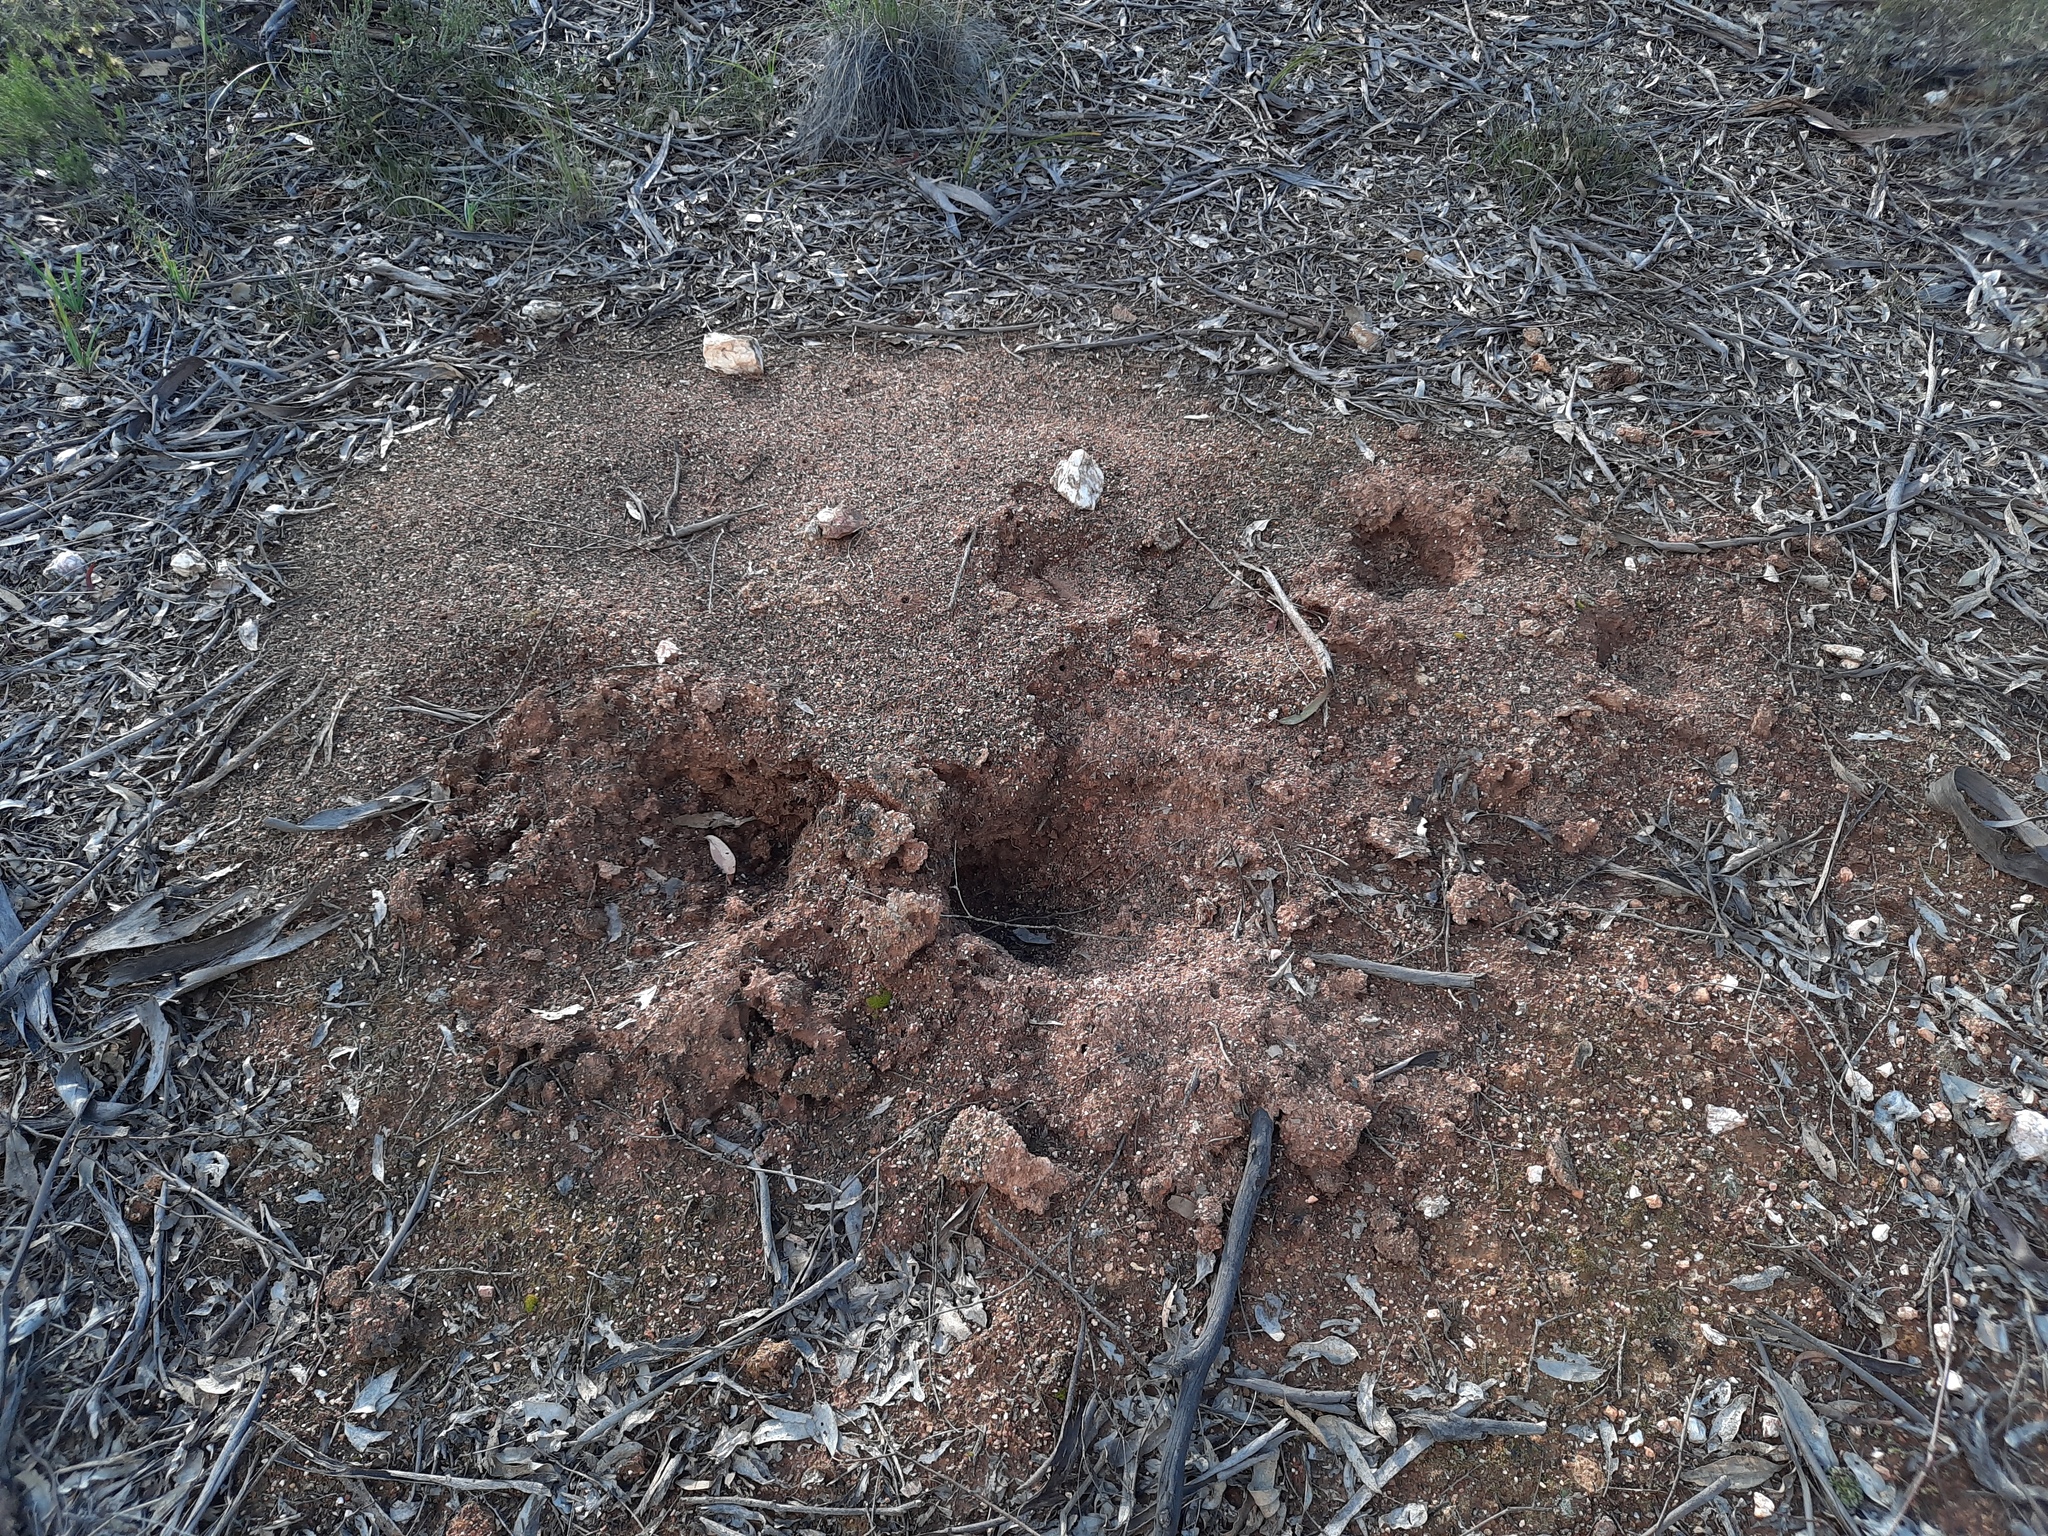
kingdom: Animalia
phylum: Arthropoda
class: Insecta
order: Hymenoptera
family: Formicidae
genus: Iridomyrmex
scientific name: Iridomyrmex purpureus
